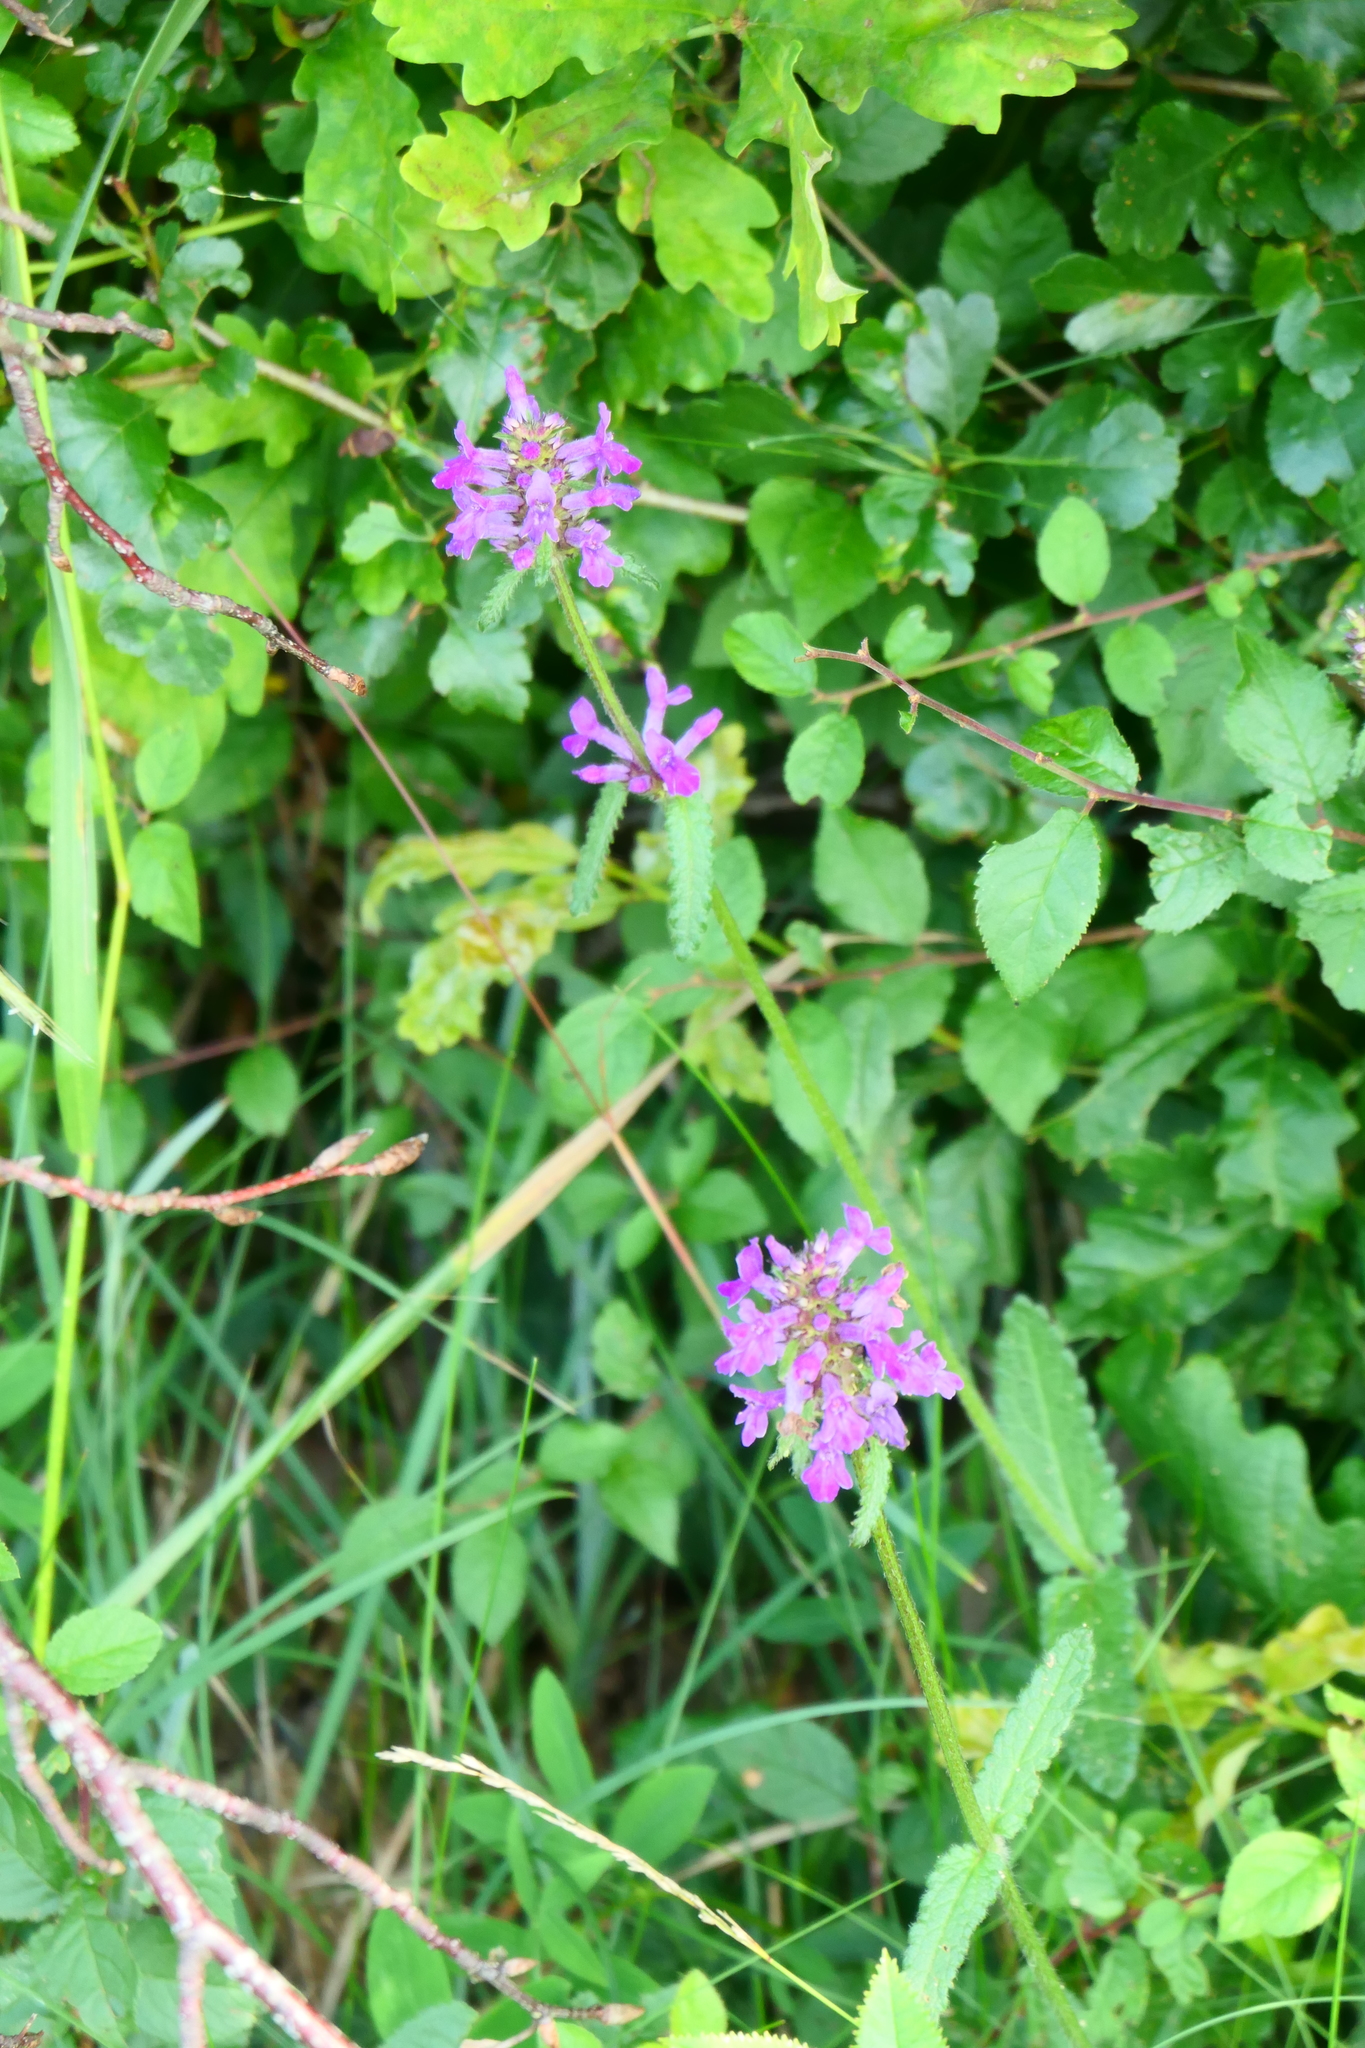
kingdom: Plantae
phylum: Tracheophyta
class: Magnoliopsida
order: Lamiales
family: Lamiaceae
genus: Betonica
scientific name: Betonica officinalis
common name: Bishop's-wort
